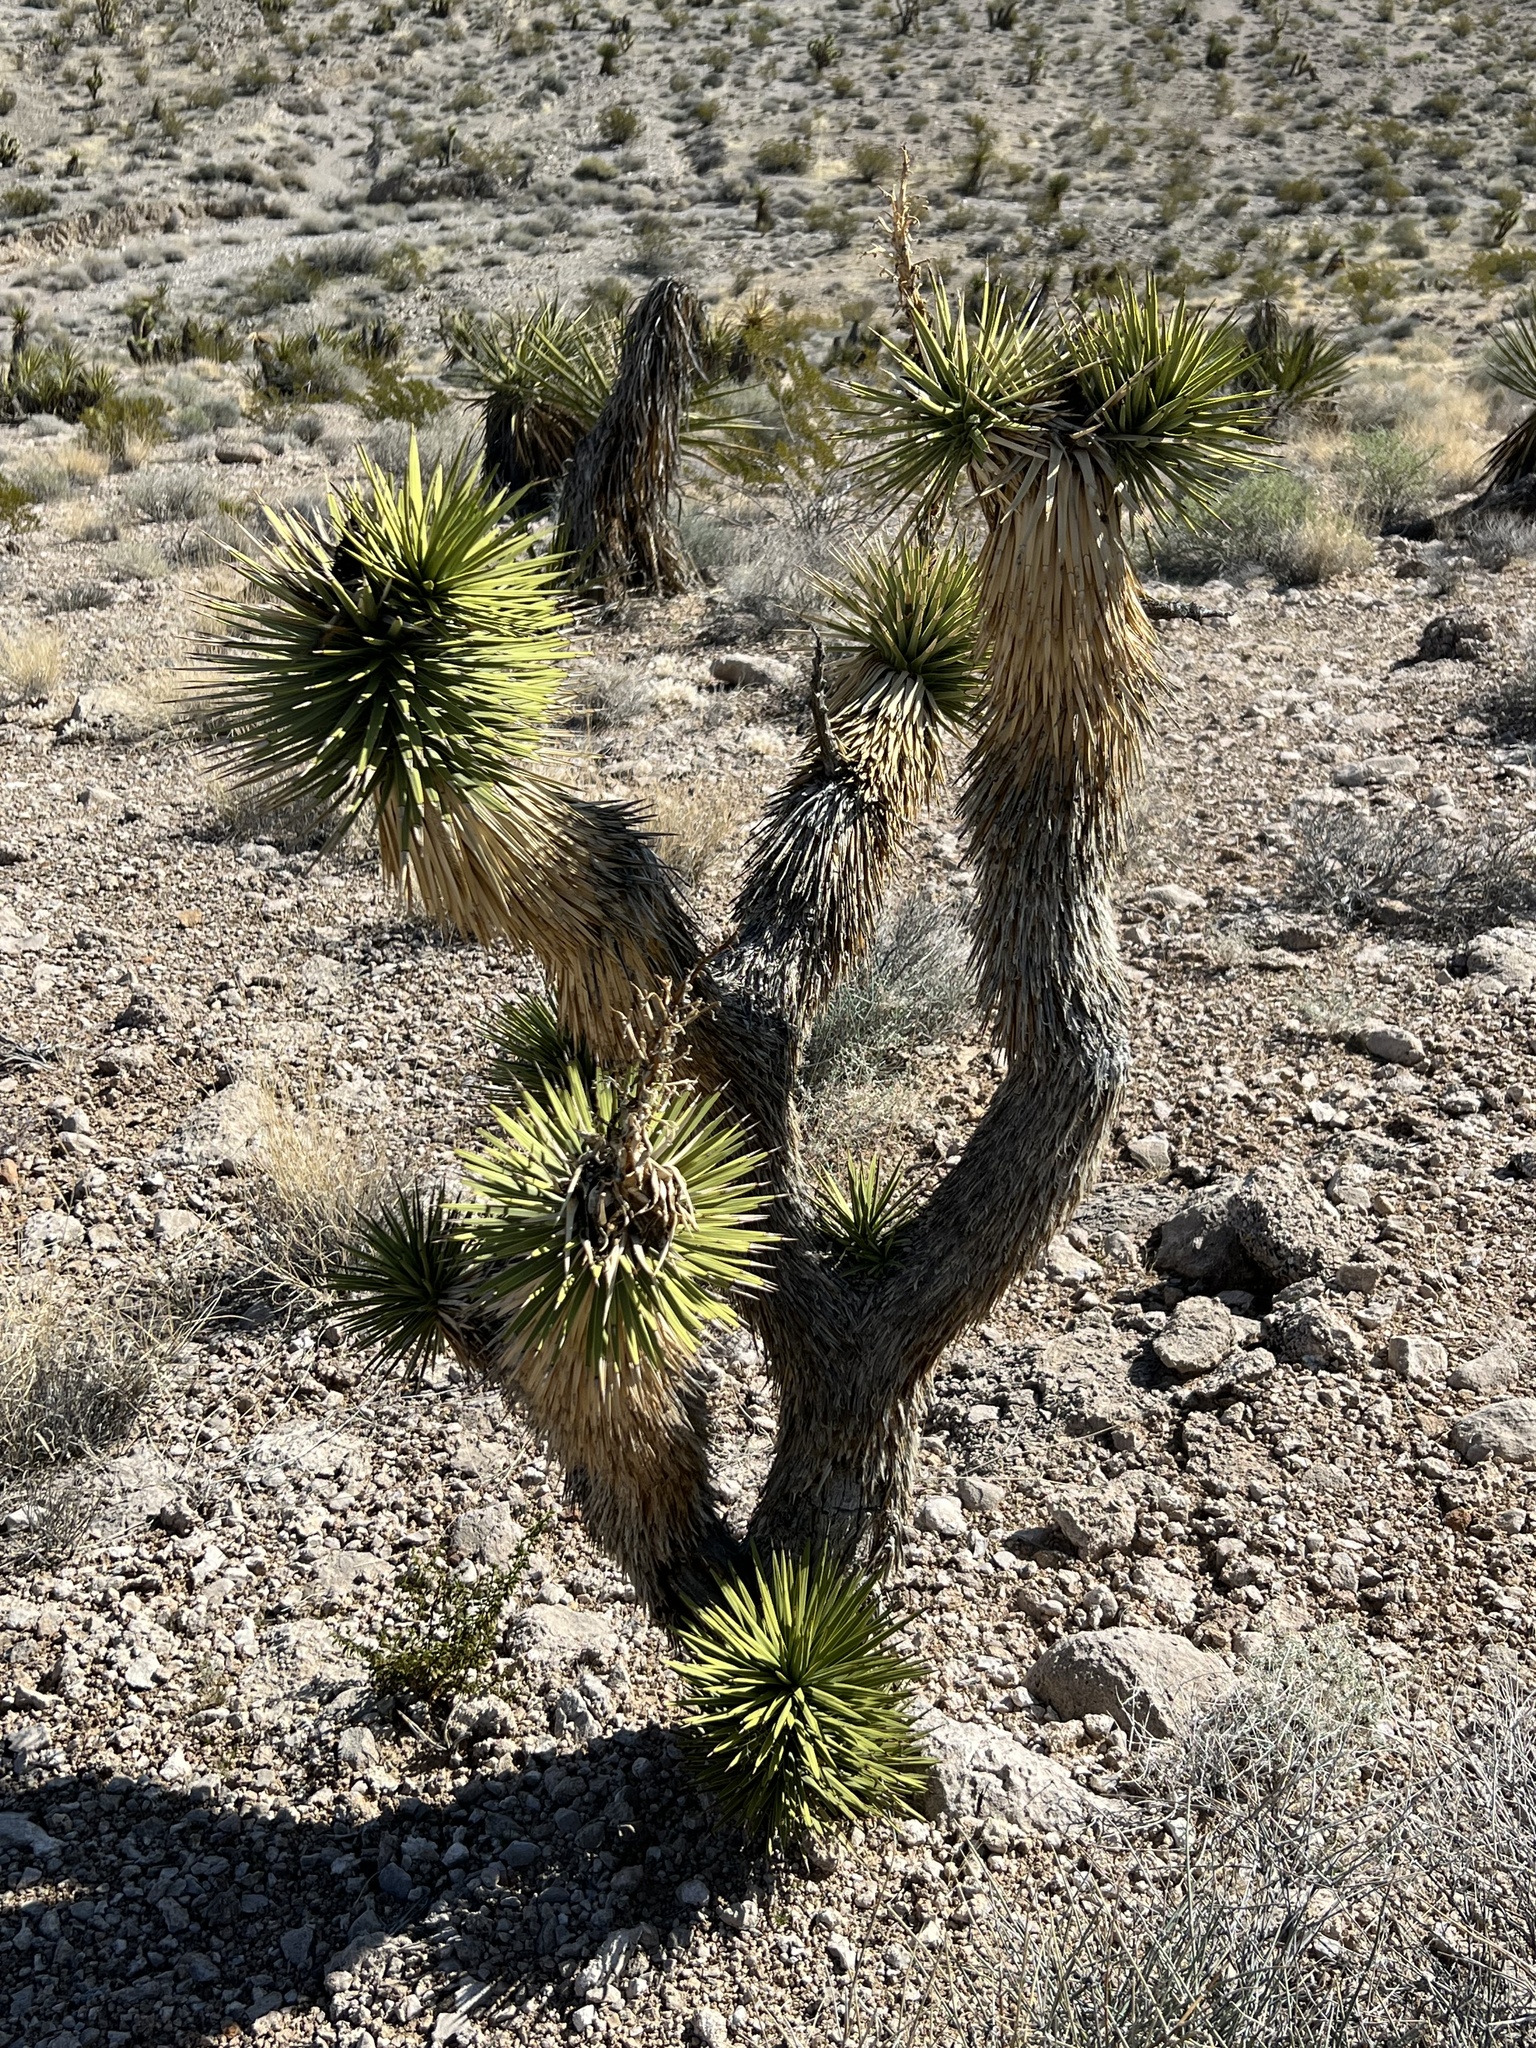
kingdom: Plantae
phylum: Tracheophyta
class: Liliopsida
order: Asparagales
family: Asparagaceae
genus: Yucca
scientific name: Yucca brevifolia
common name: Joshua tree
